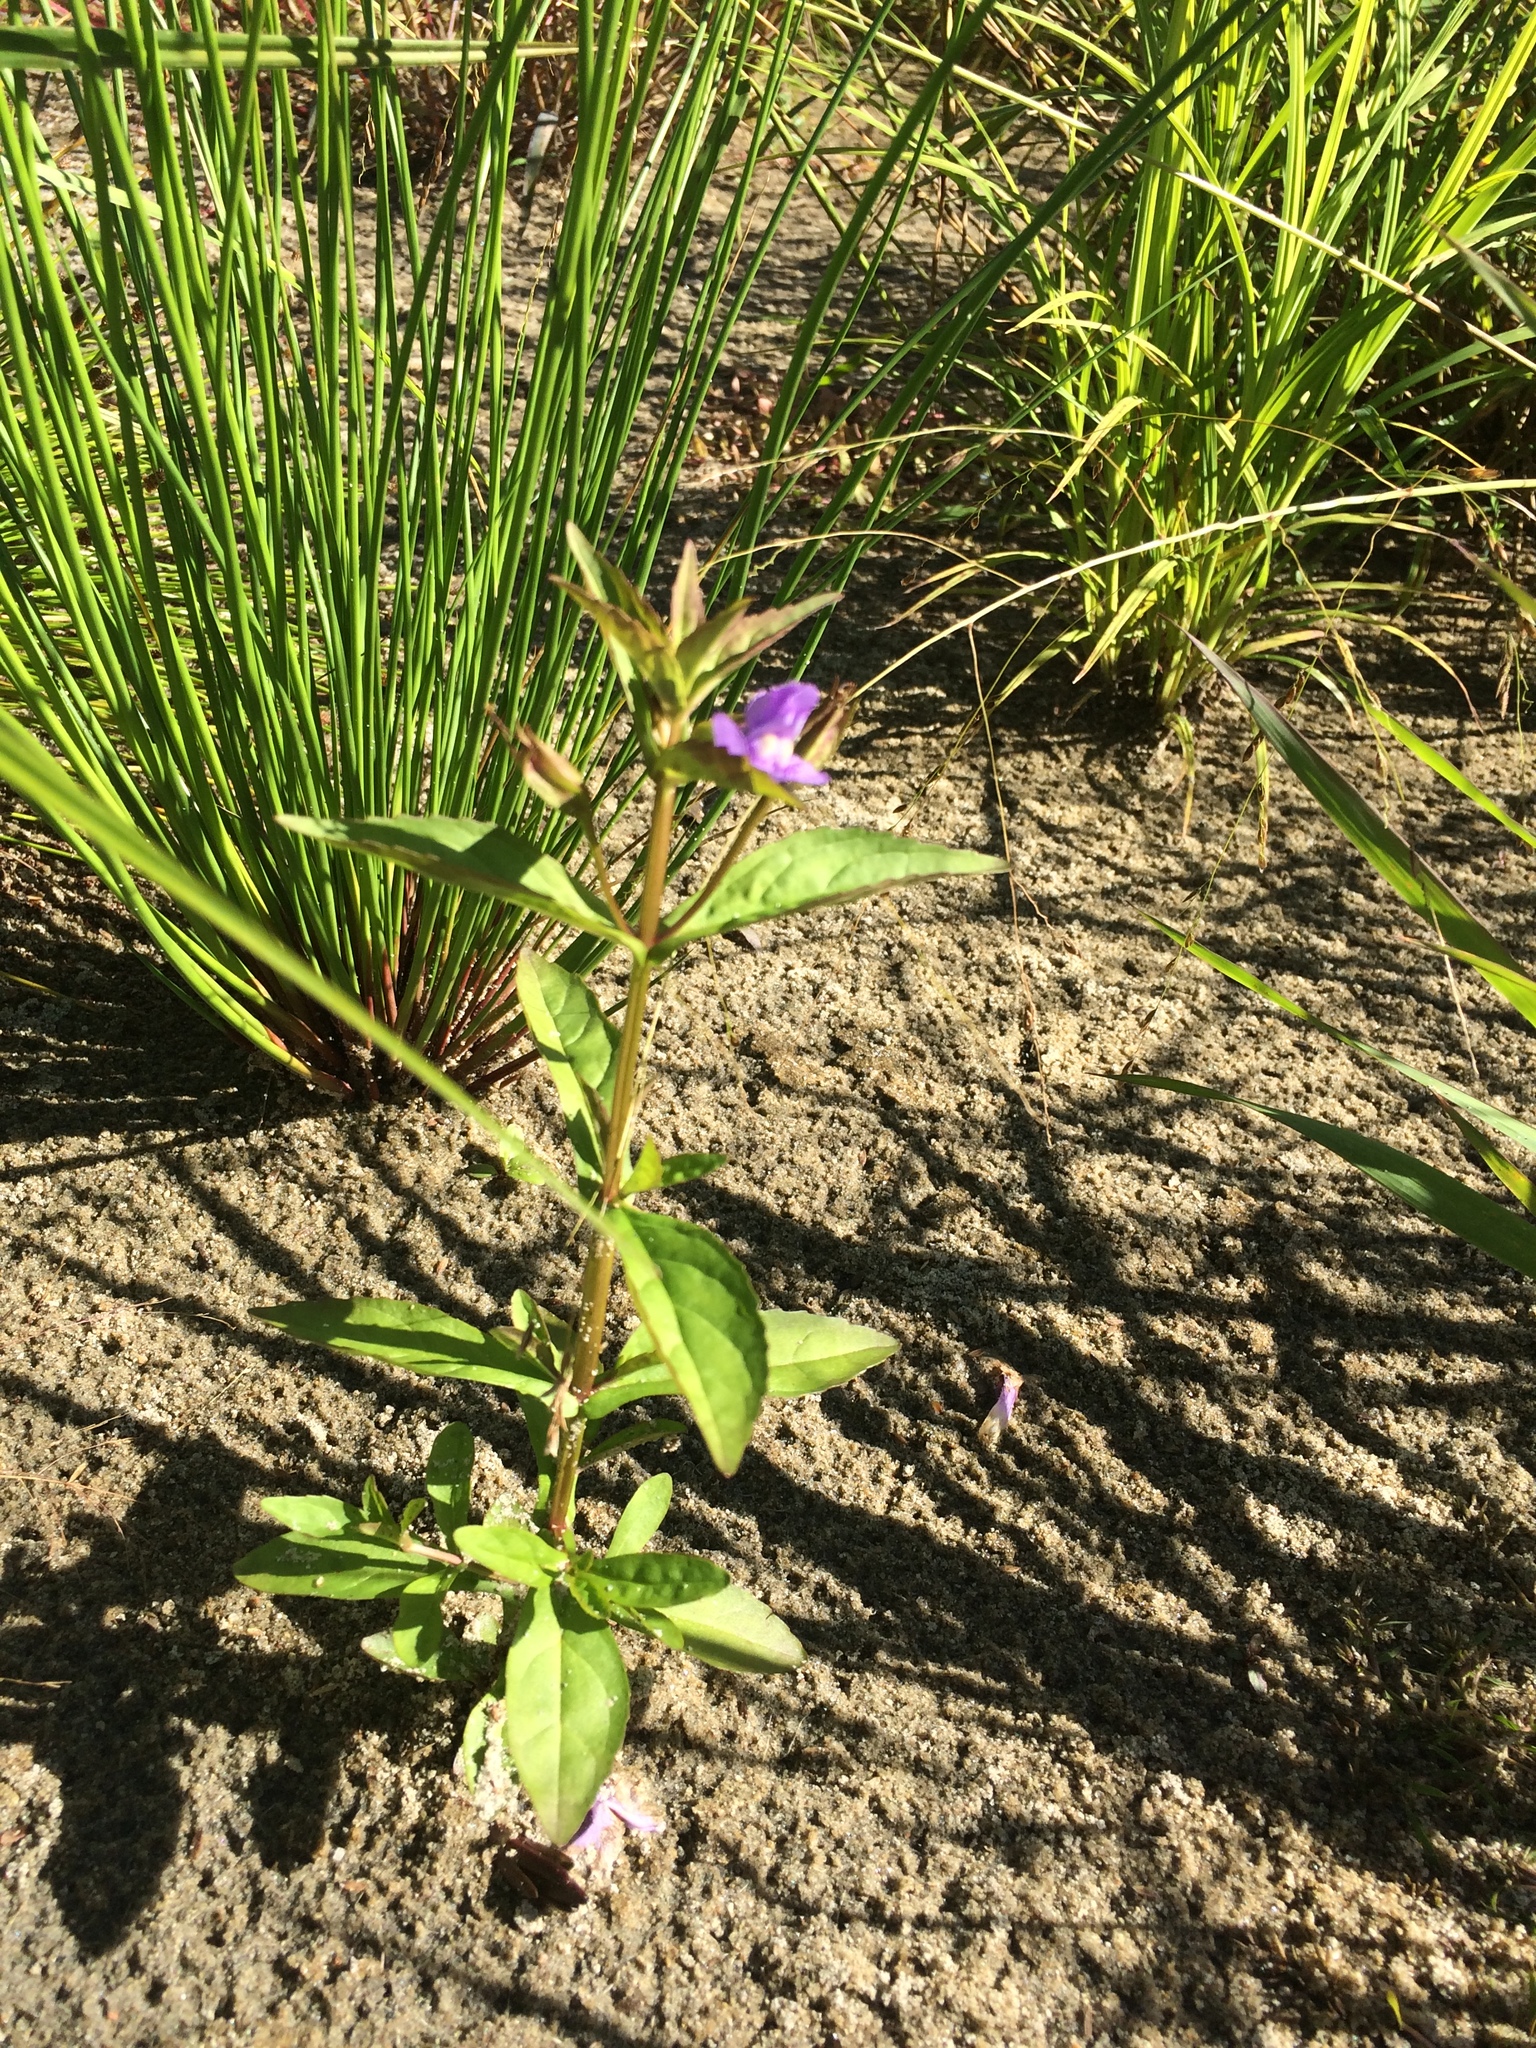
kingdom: Plantae
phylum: Tracheophyta
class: Magnoliopsida
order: Lamiales
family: Phrymaceae
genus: Mimulus
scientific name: Mimulus ringens
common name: Allegheny monkeyflower
